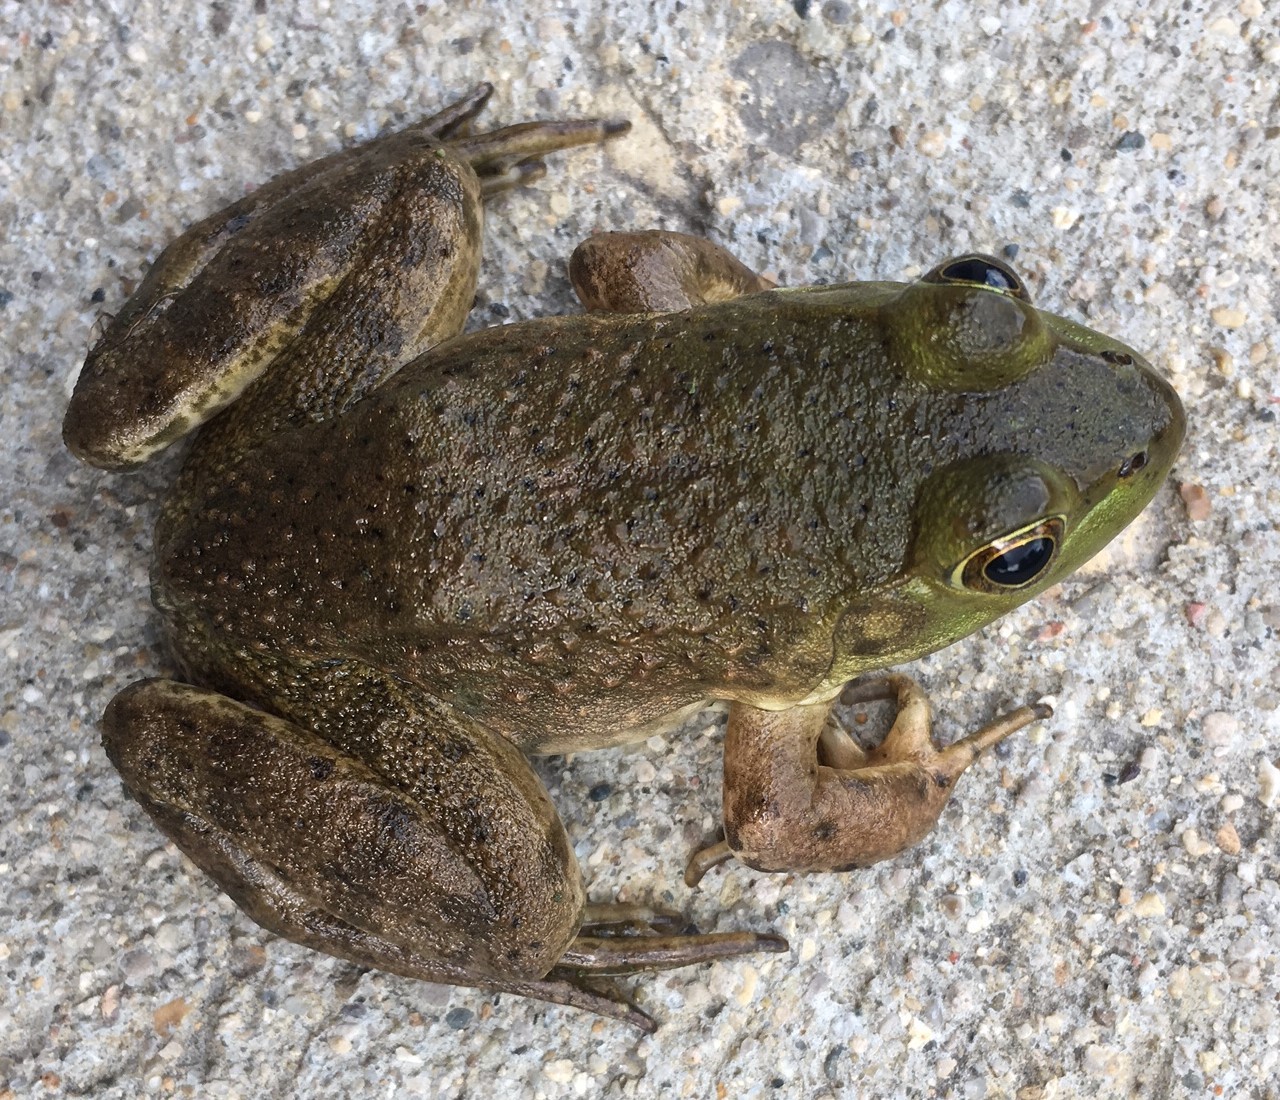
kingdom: Animalia
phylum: Chordata
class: Amphibia
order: Anura
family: Ranidae
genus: Lithobates
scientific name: Lithobates catesbeianus
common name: American bullfrog
